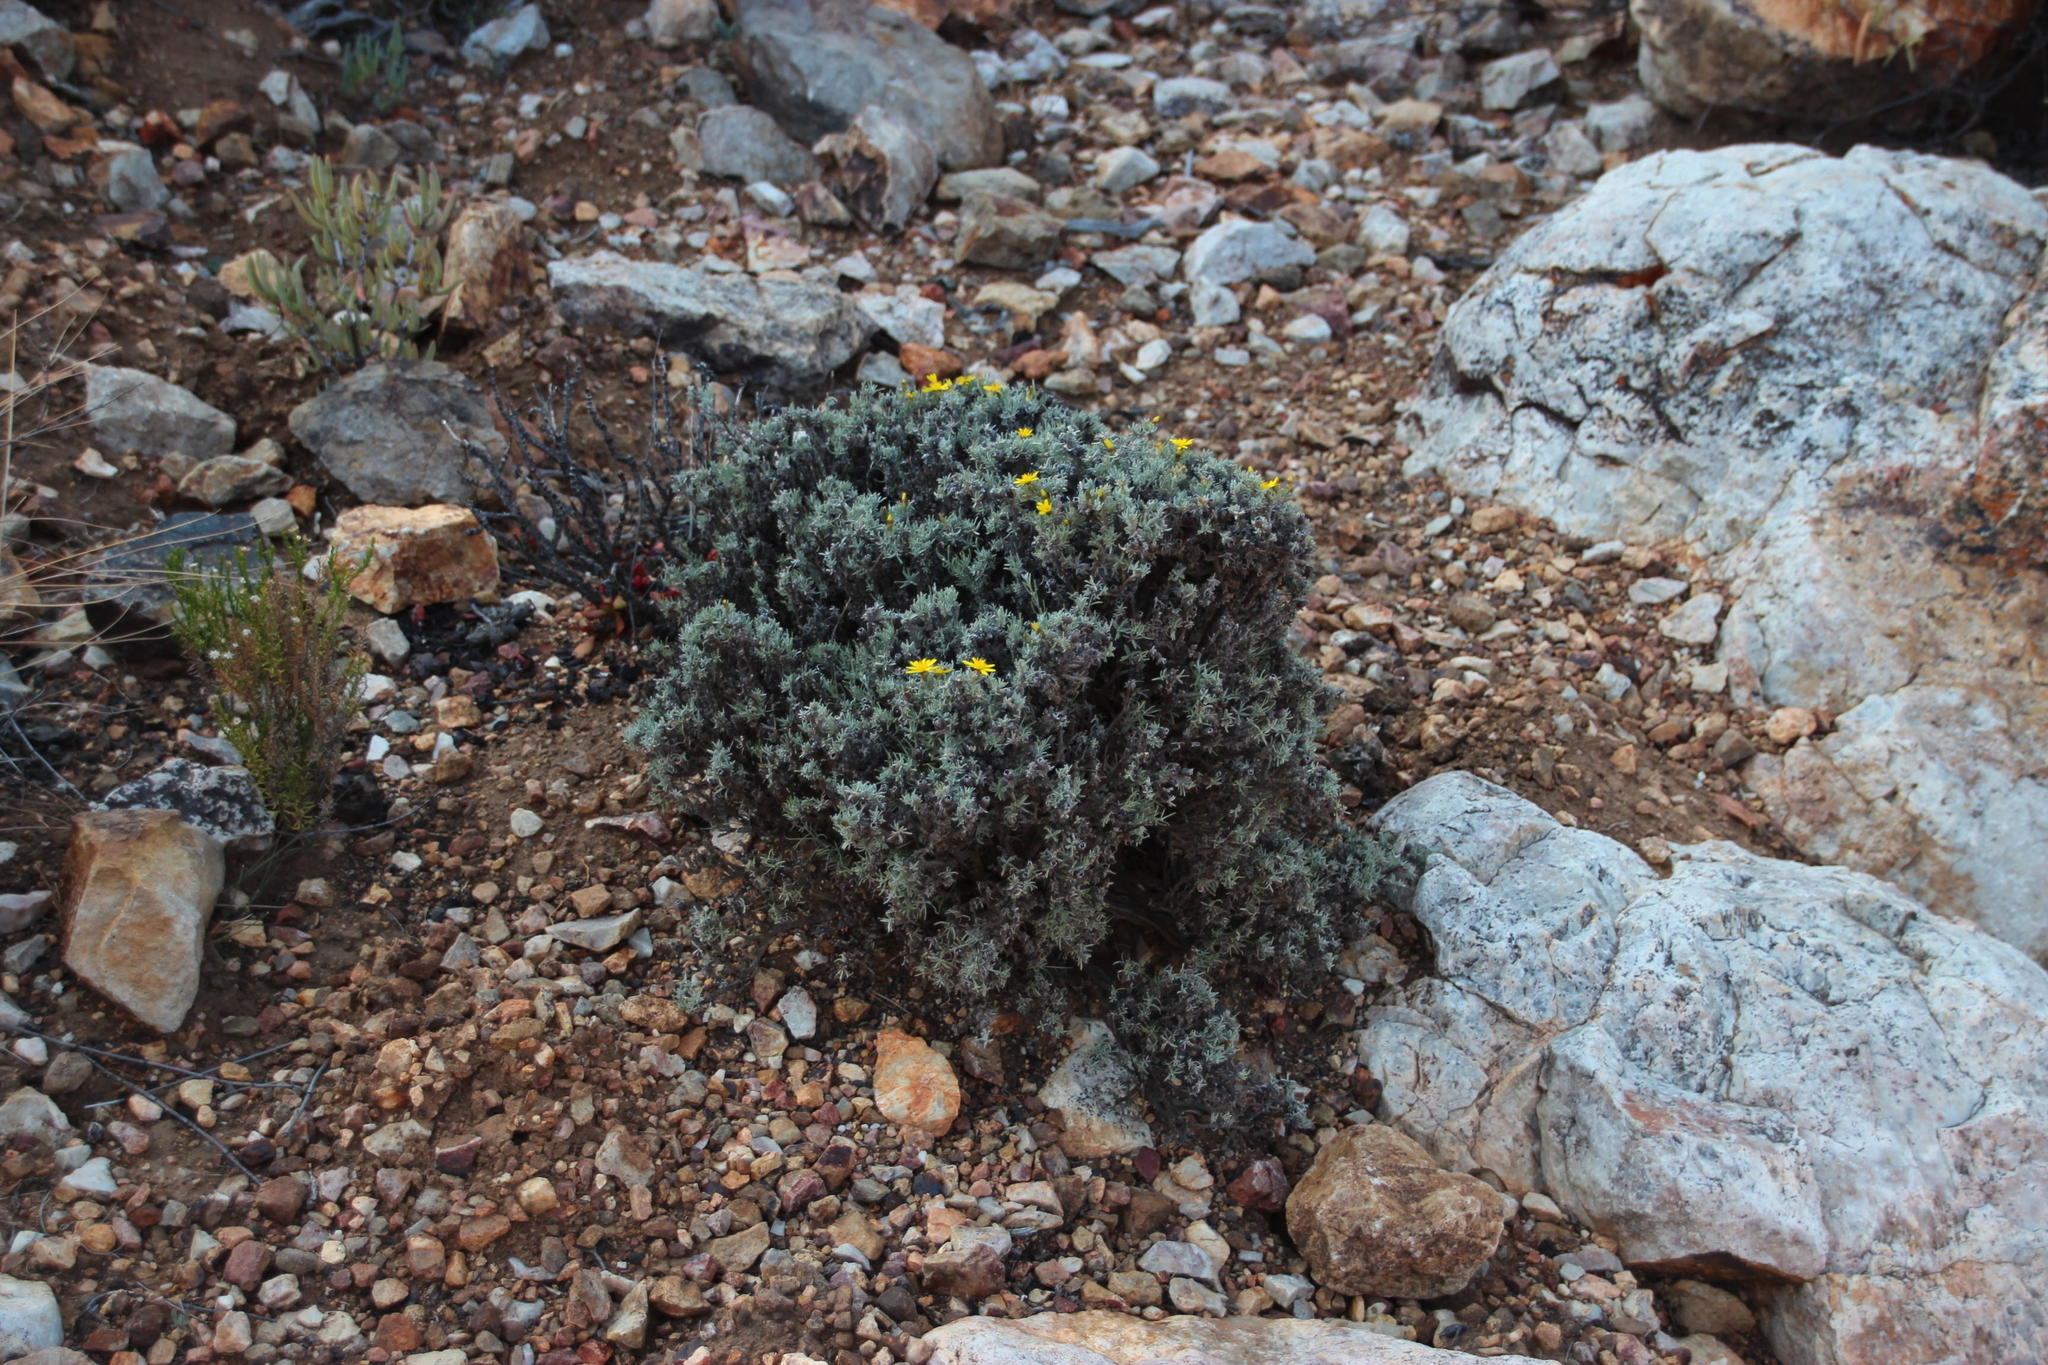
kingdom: Plantae
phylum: Tracheophyta
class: Magnoliopsida
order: Asterales
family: Asteraceae
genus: Oedera
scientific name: Oedera humilis
